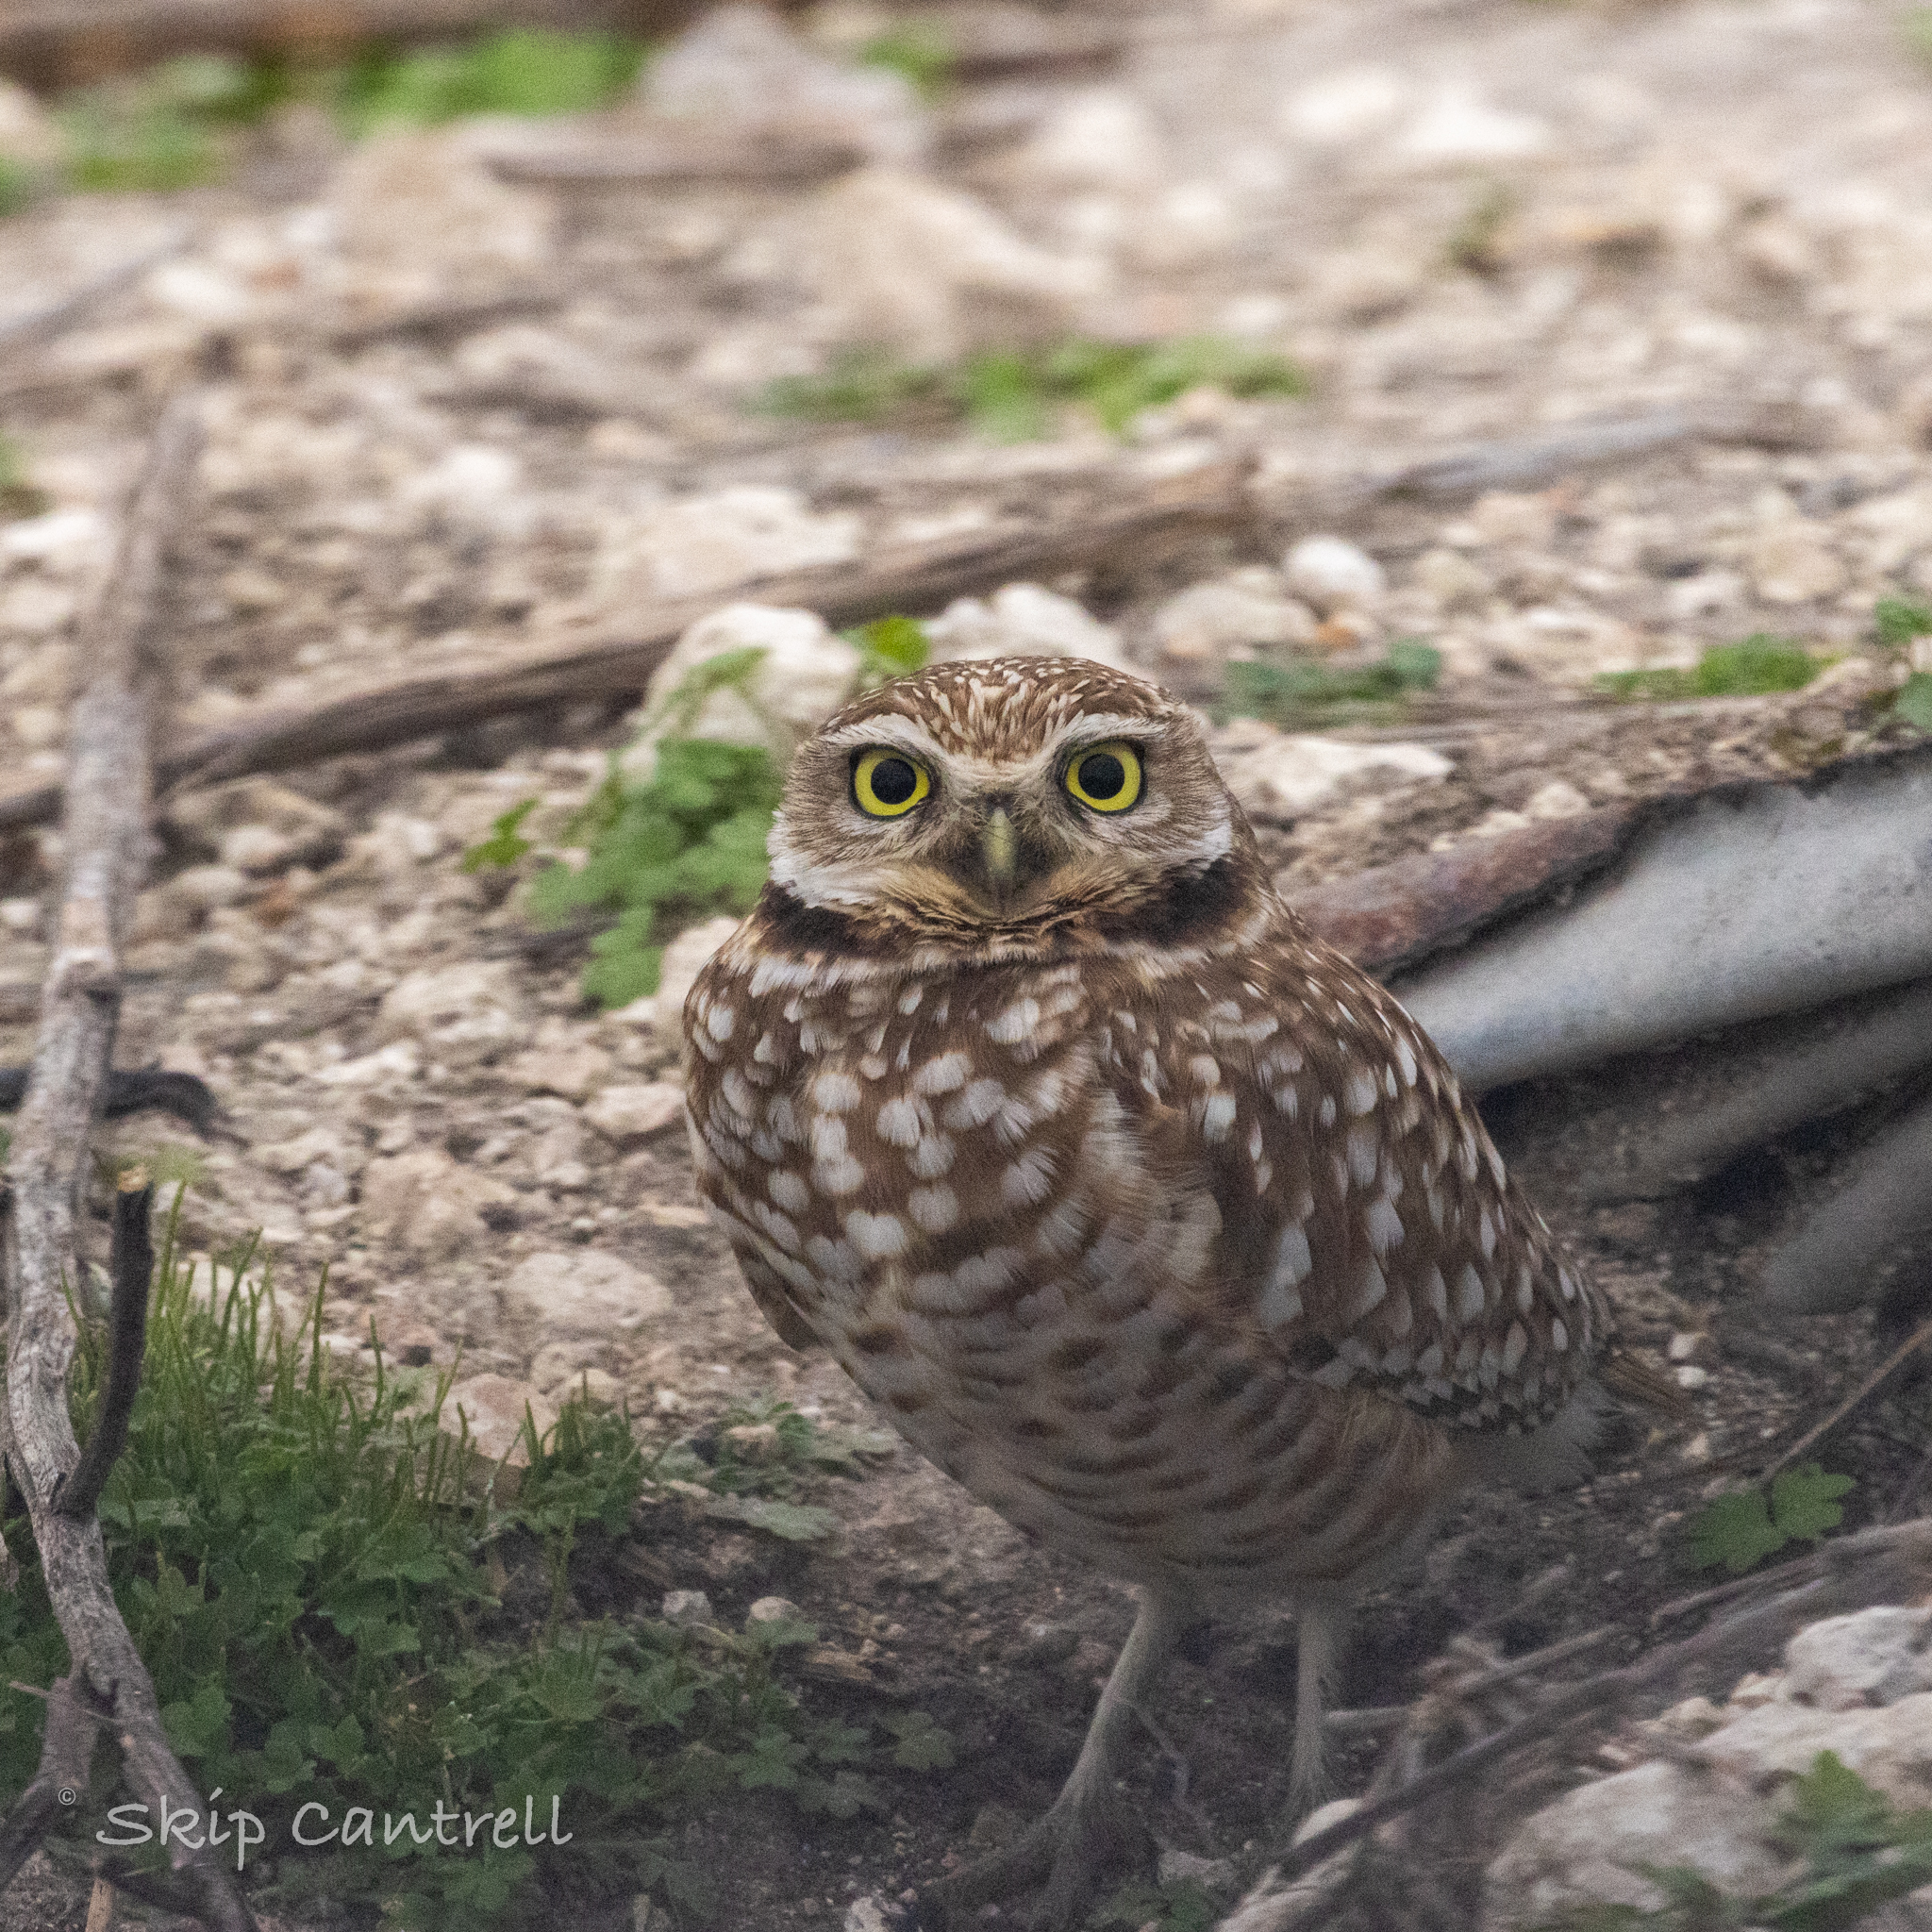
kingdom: Animalia
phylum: Chordata
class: Aves
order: Strigiformes
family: Strigidae
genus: Athene
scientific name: Athene cunicularia
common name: Burrowing owl
